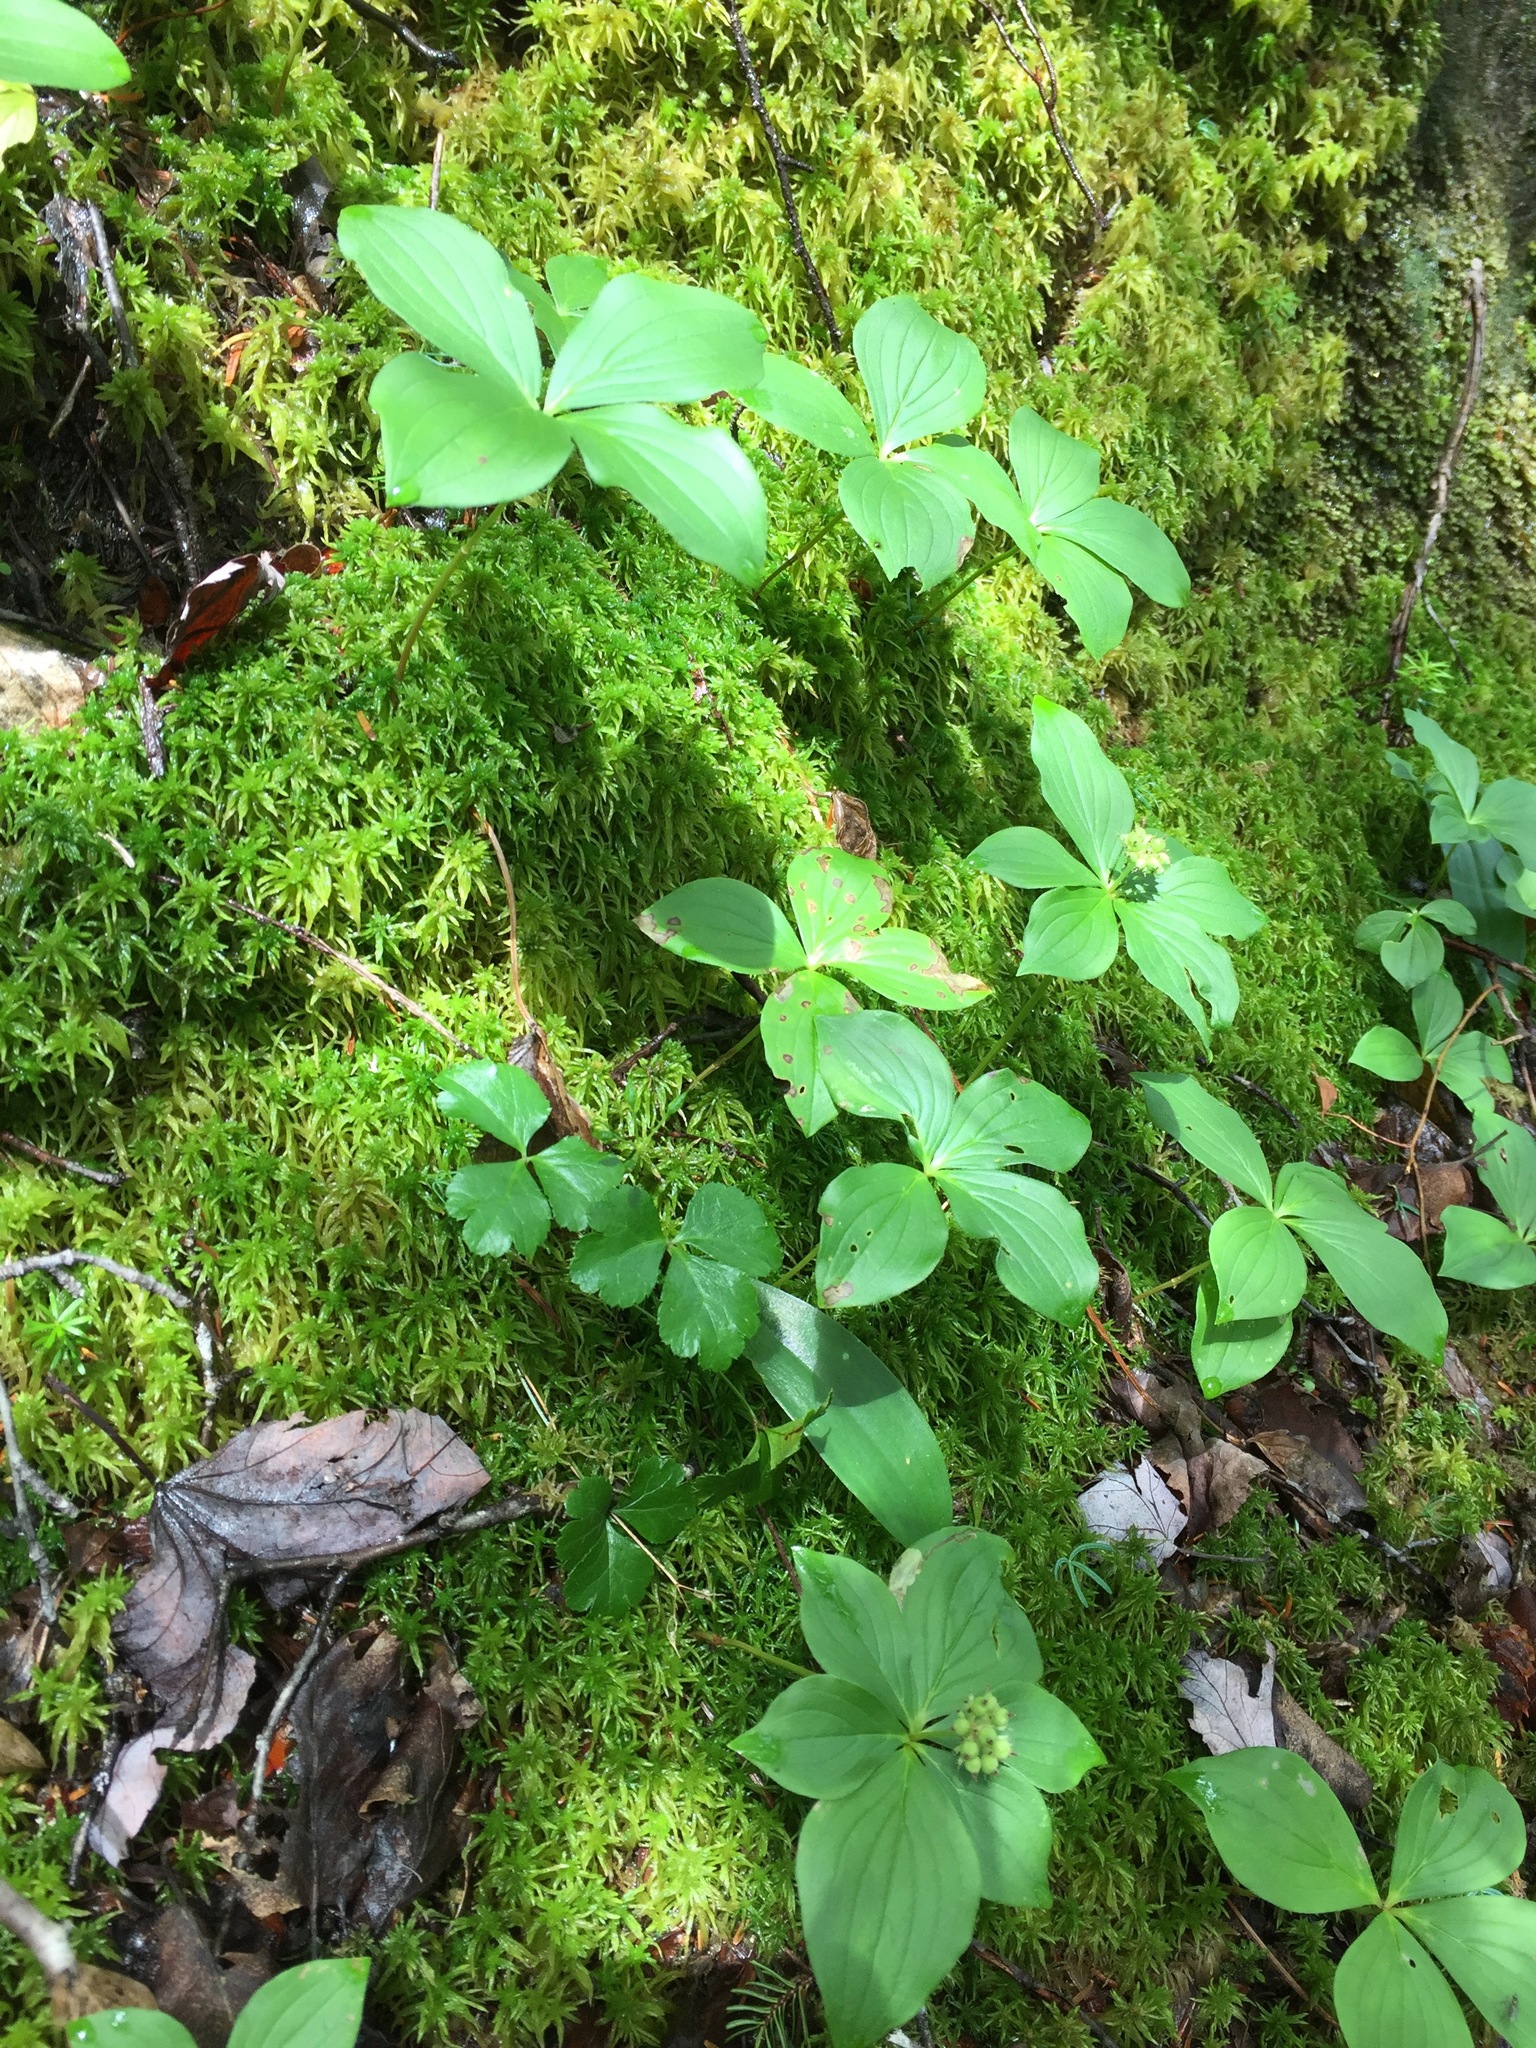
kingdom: Plantae
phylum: Tracheophyta
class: Magnoliopsida
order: Cornales
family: Cornaceae
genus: Cornus
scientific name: Cornus canadensis
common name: Creeping dogwood
